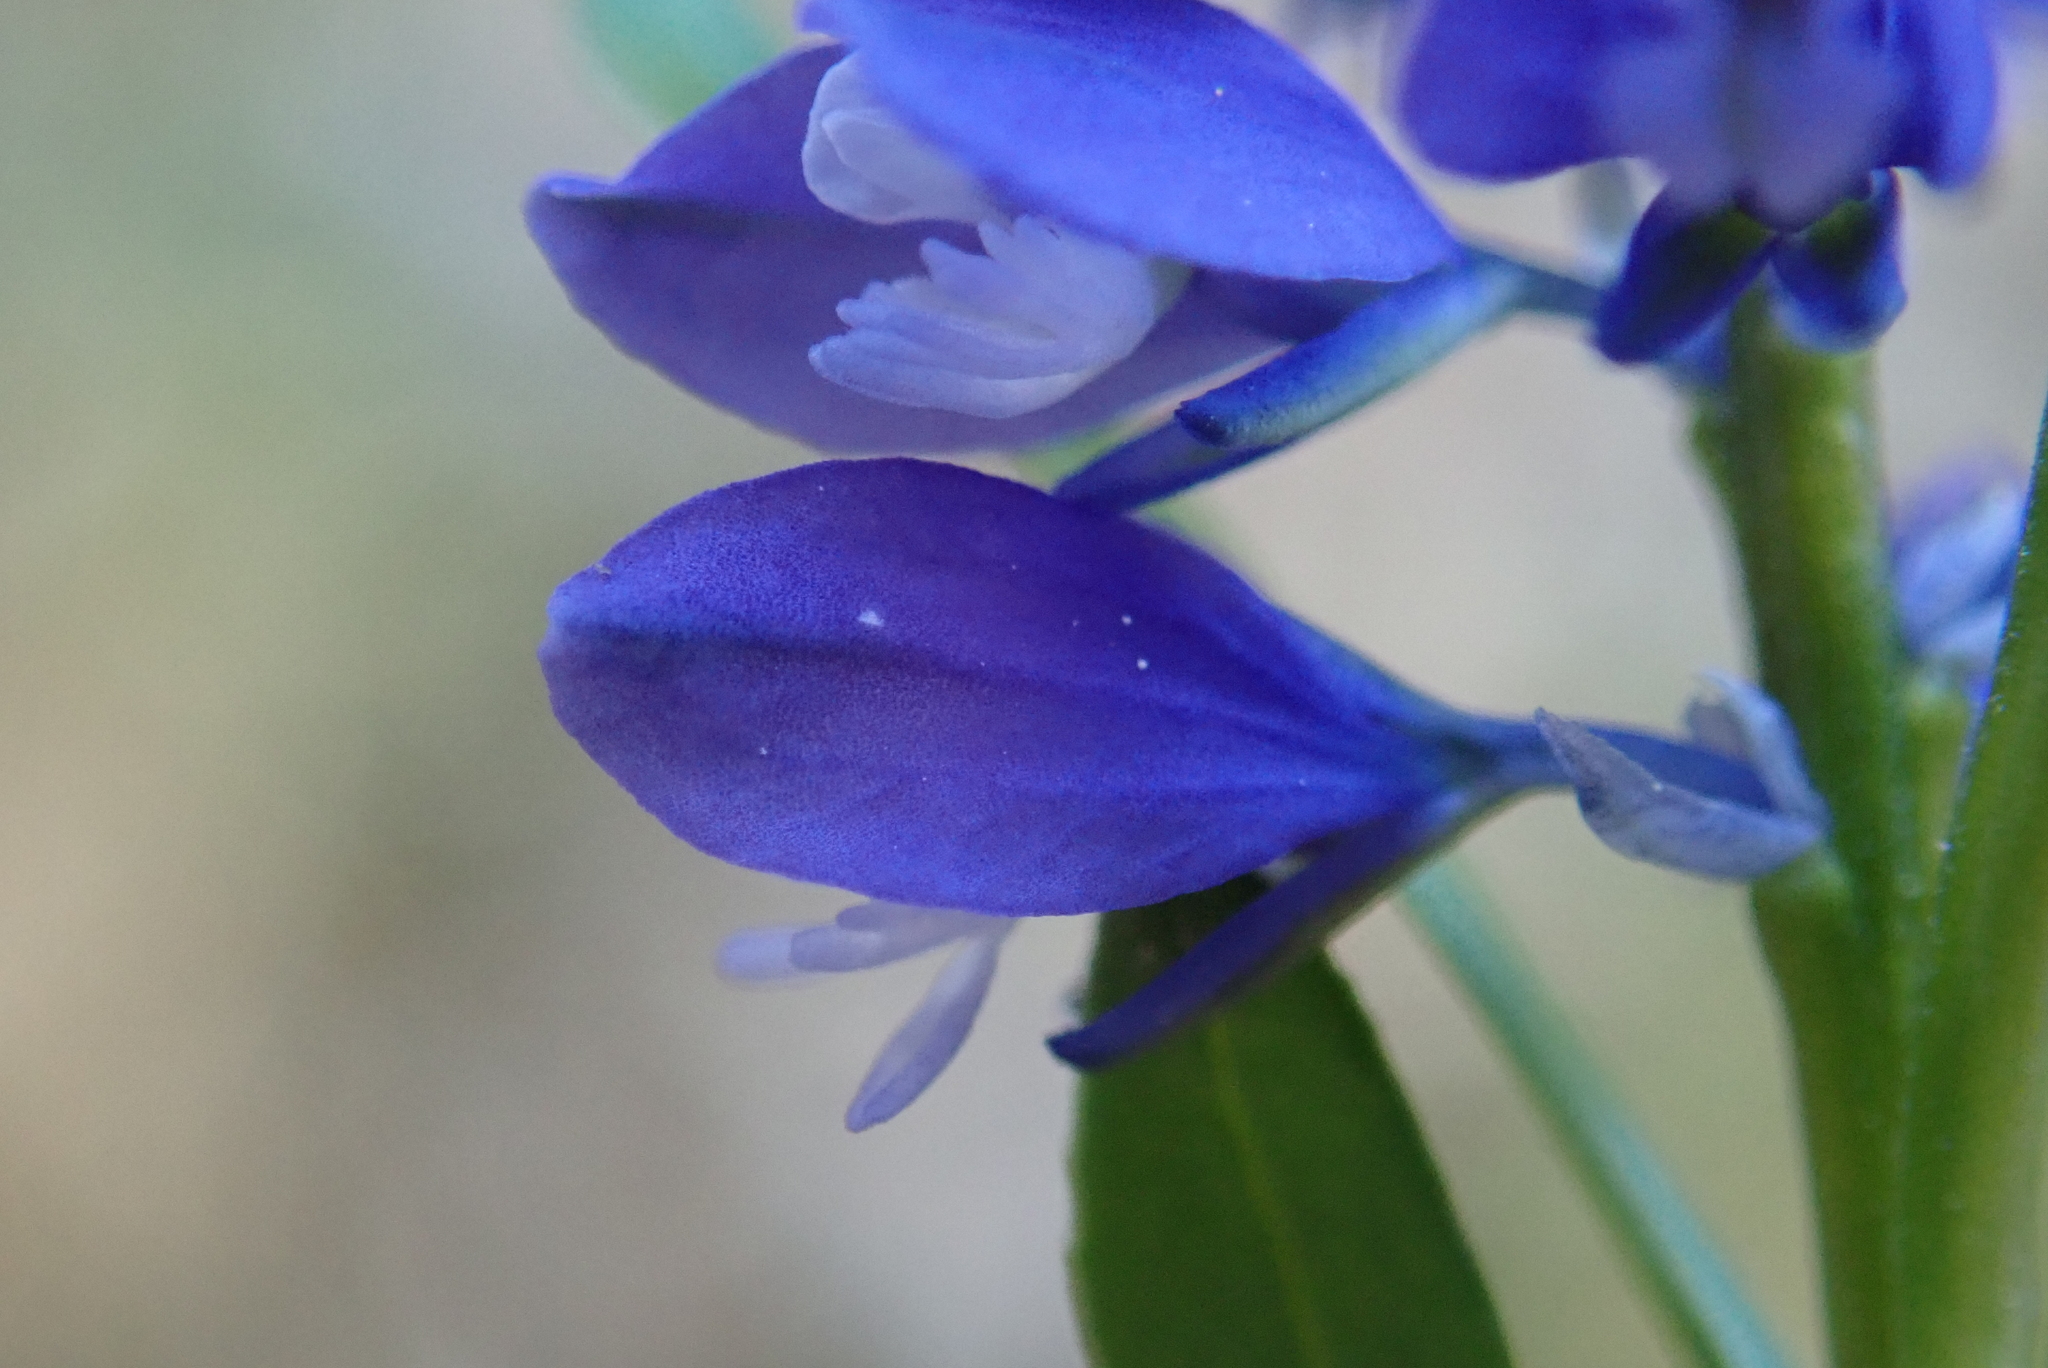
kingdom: Plantae
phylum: Tracheophyta
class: Magnoliopsida
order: Fabales
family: Polygalaceae
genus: Polygala
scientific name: Polygala amara
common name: Milkwort
